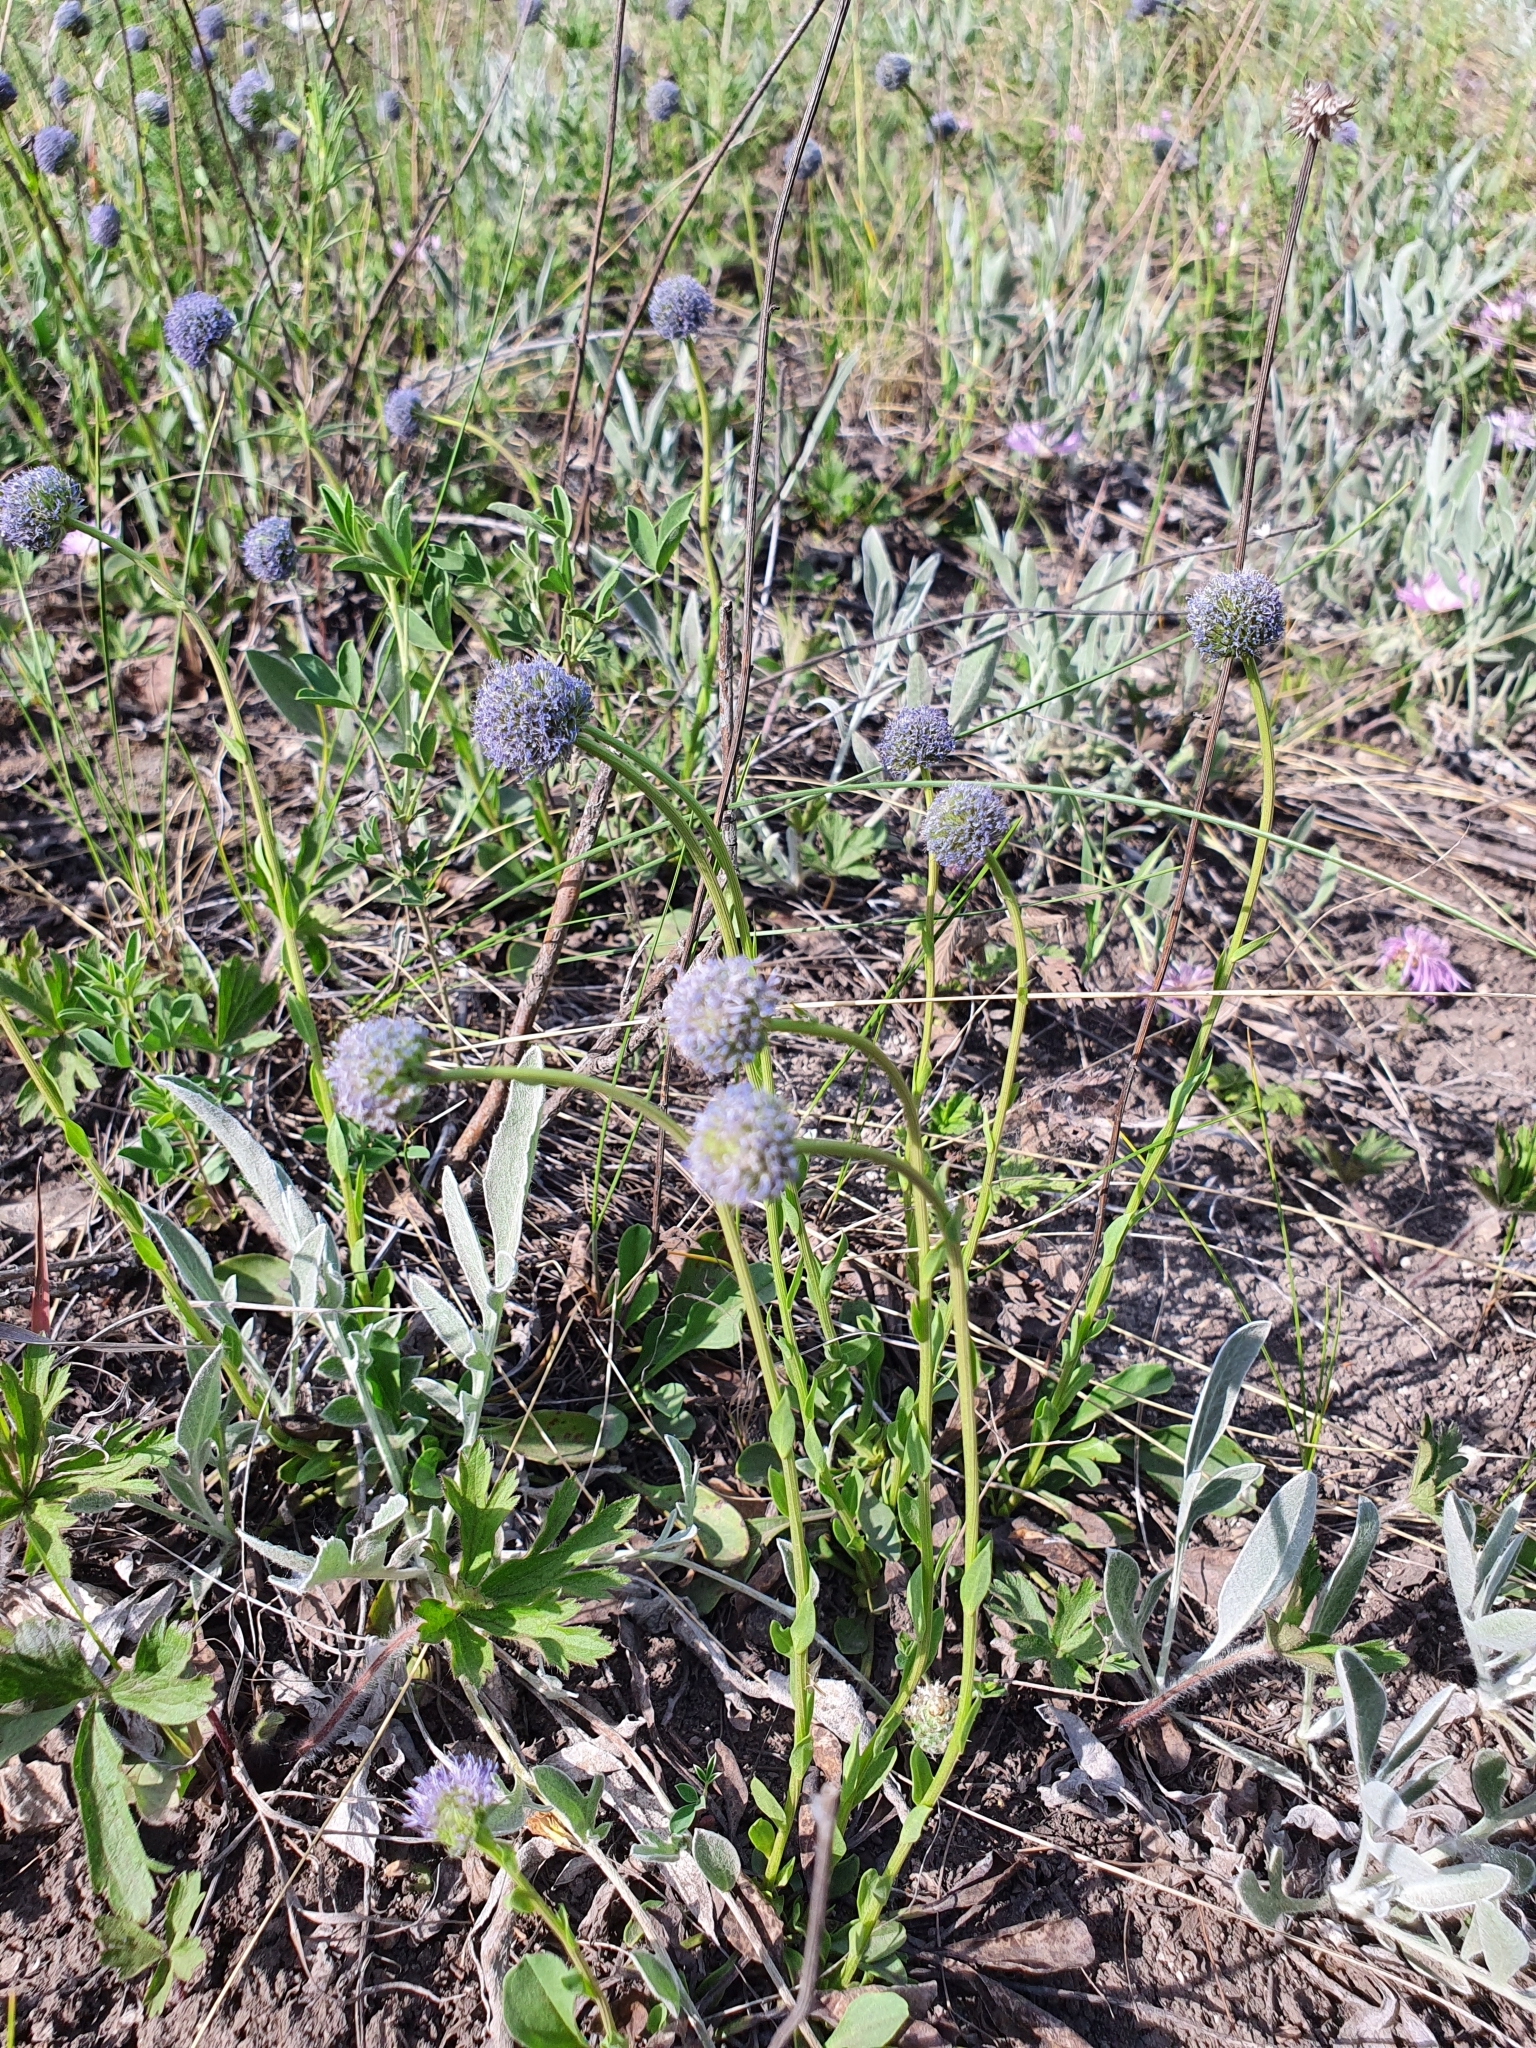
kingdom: Plantae
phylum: Tracheophyta
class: Magnoliopsida
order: Lamiales
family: Plantaginaceae
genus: Globularia
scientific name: Globularia bisnagarica
